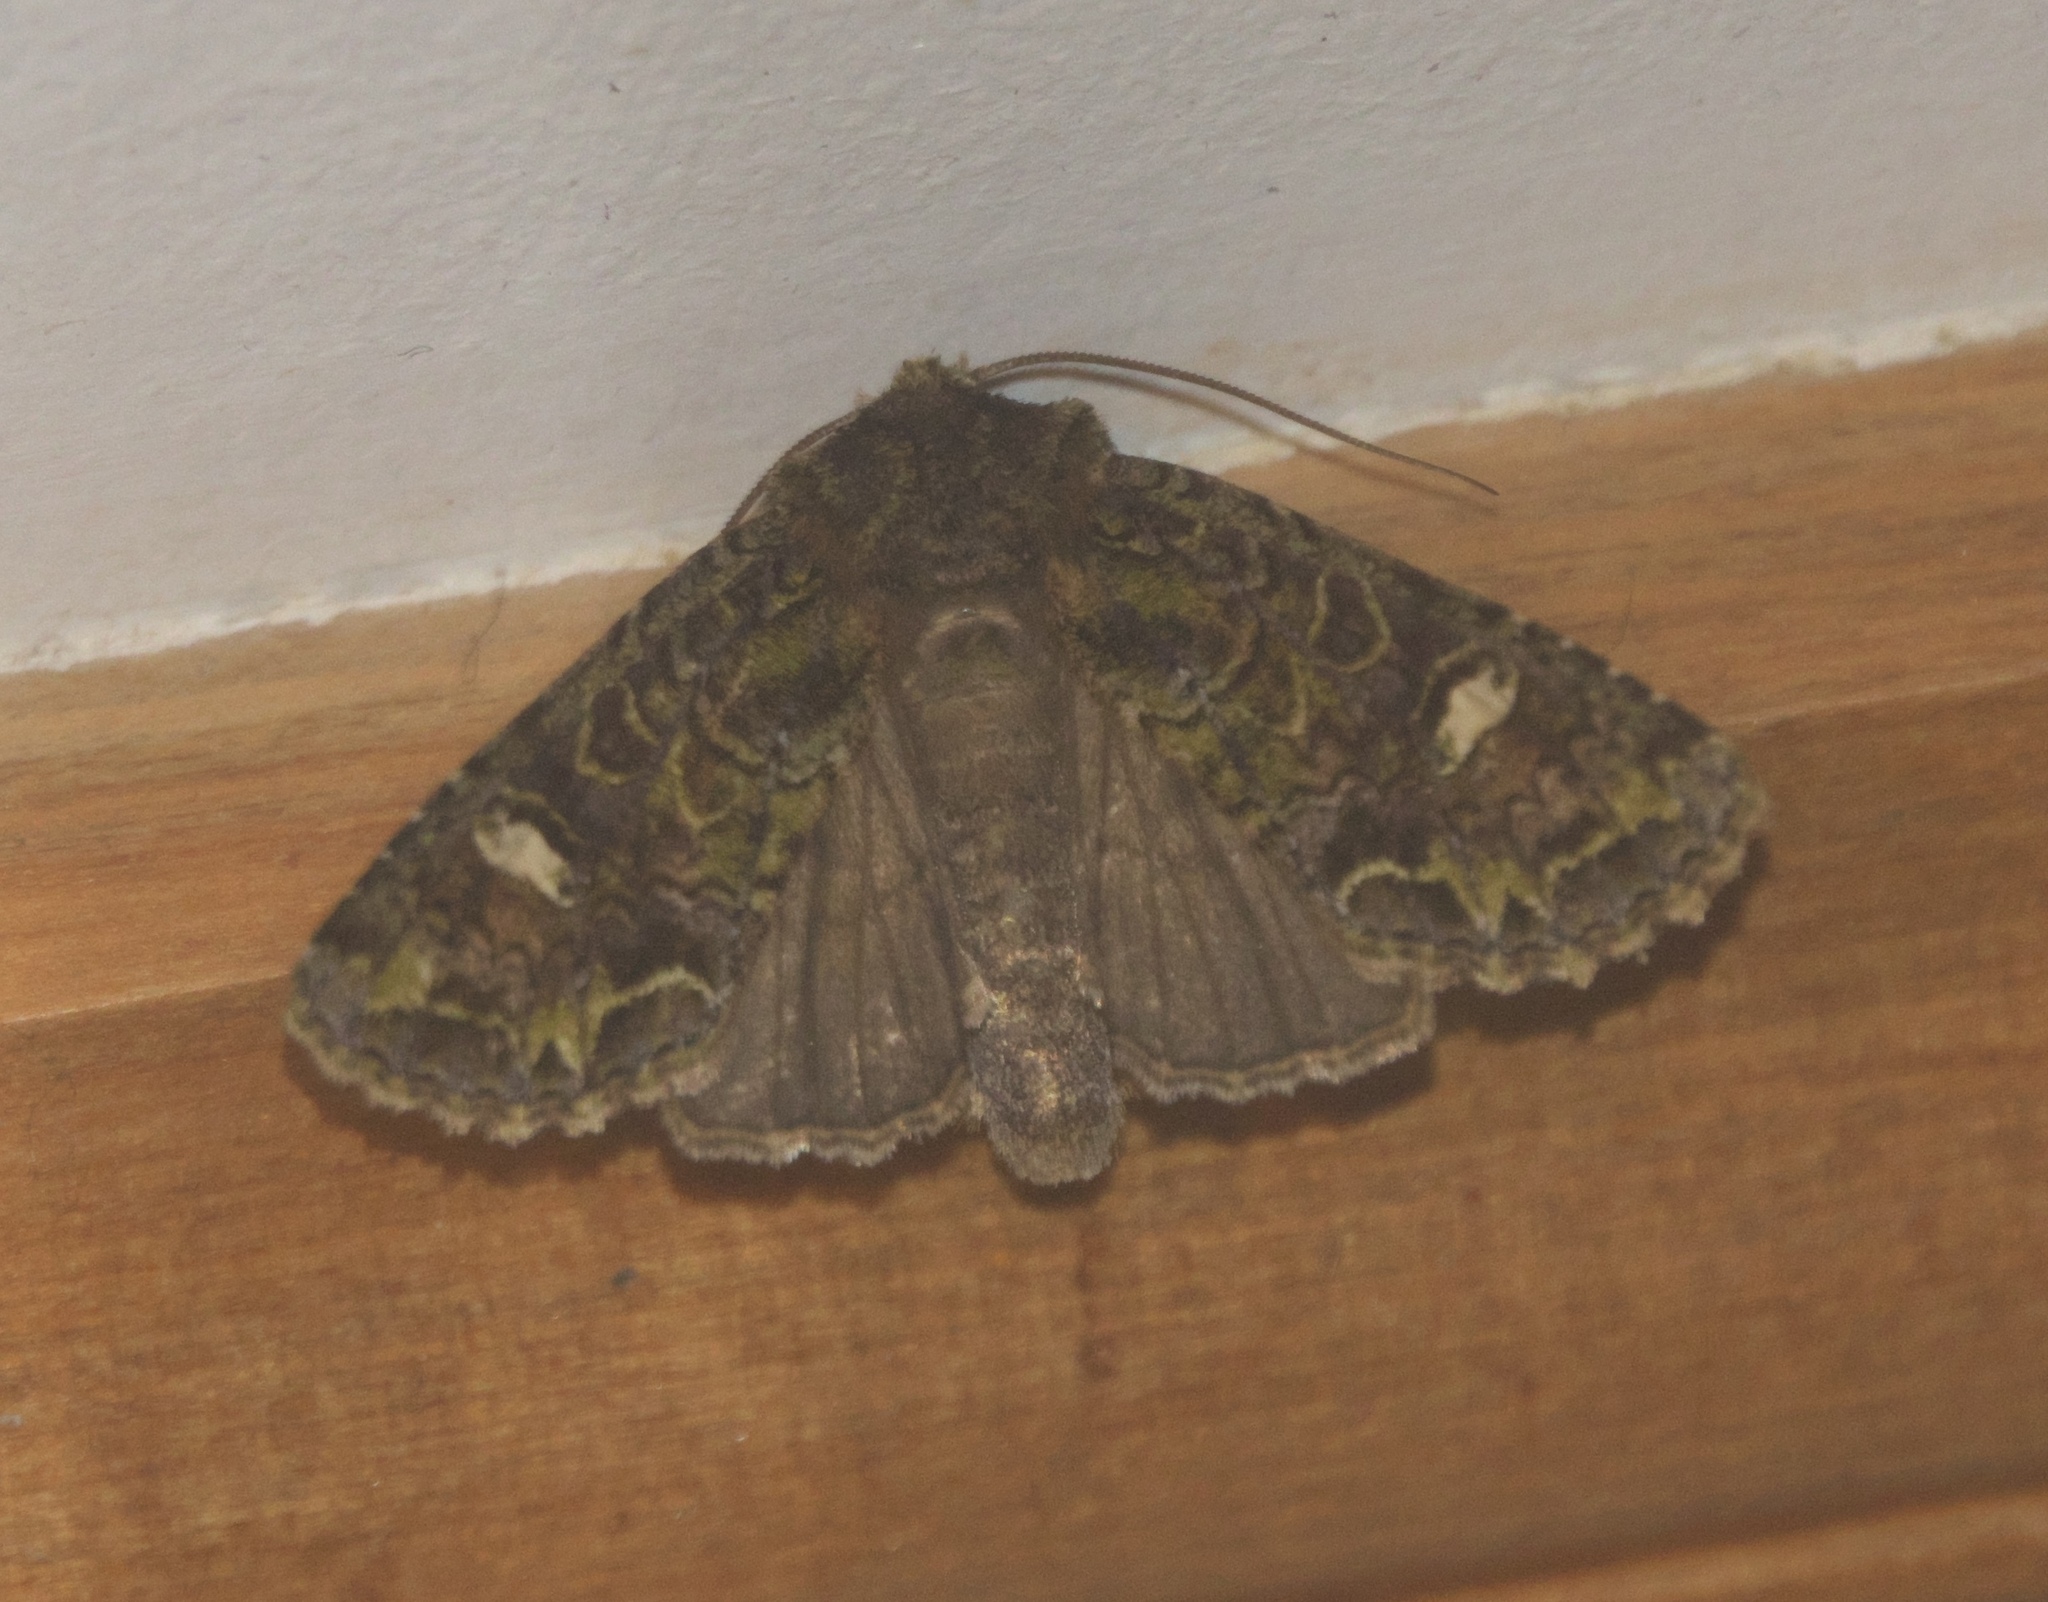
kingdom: Animalia
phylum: Arthropoda
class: Insecta
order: Lepidoptera
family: Noctuidae
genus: Ichneutica
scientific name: Ichneutica
